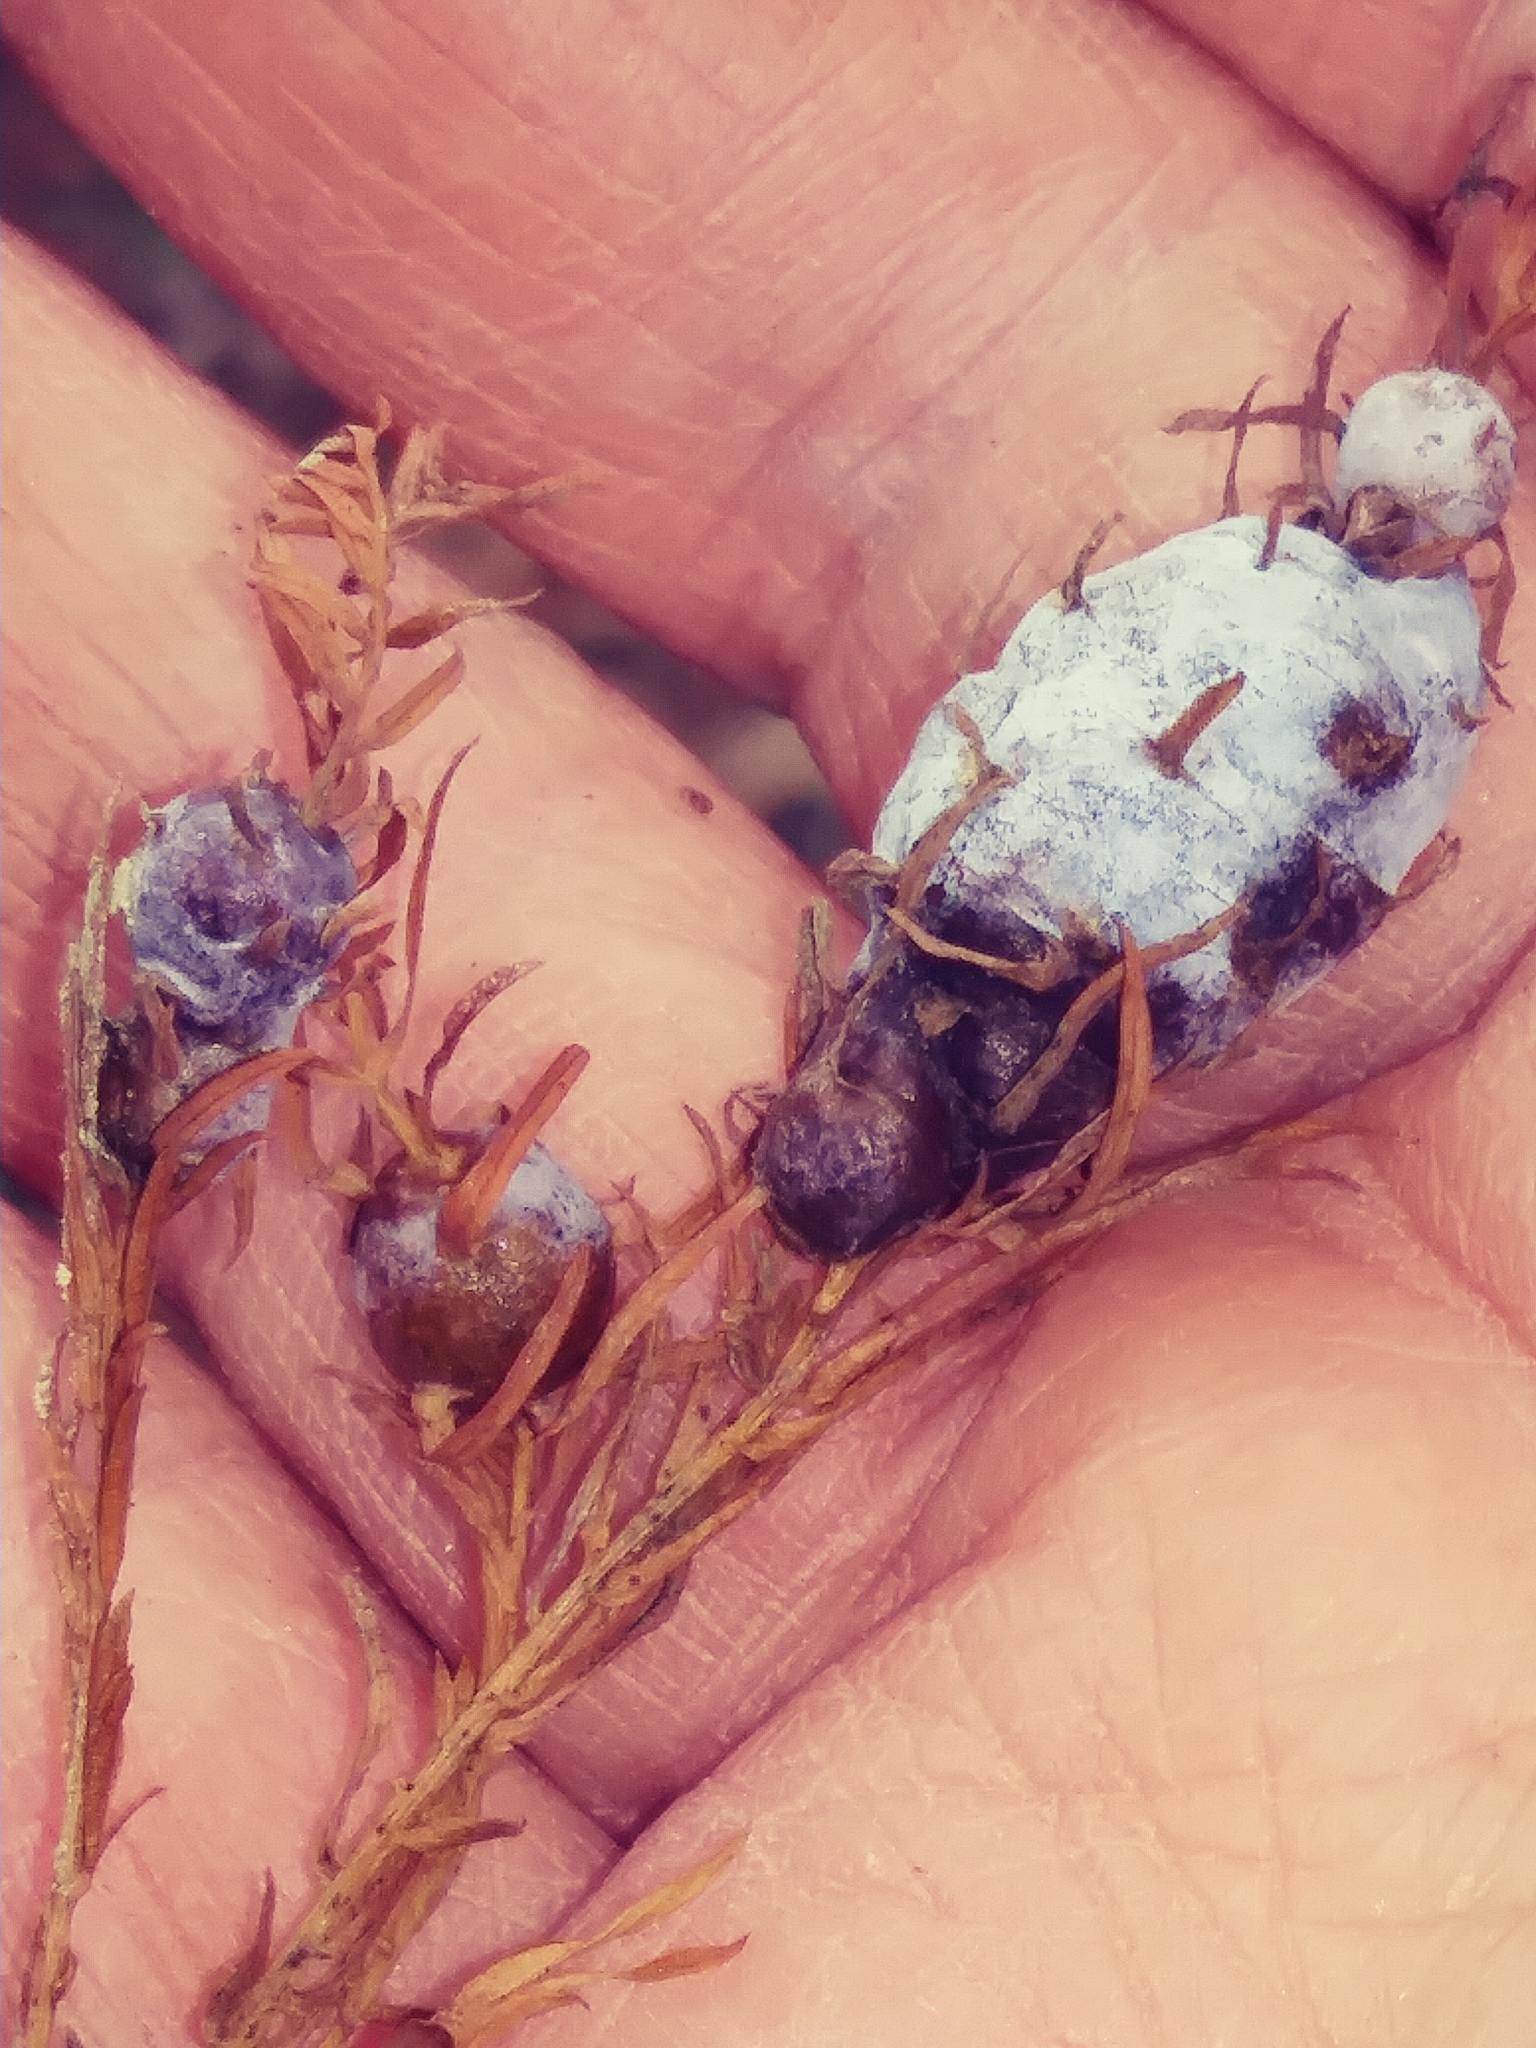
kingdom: Animalia
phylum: Arthropoda
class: Insecta
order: Diptera
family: Cecidomyiidae
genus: Taxodiomyia
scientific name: Taxodiomyia cupressiananassa
